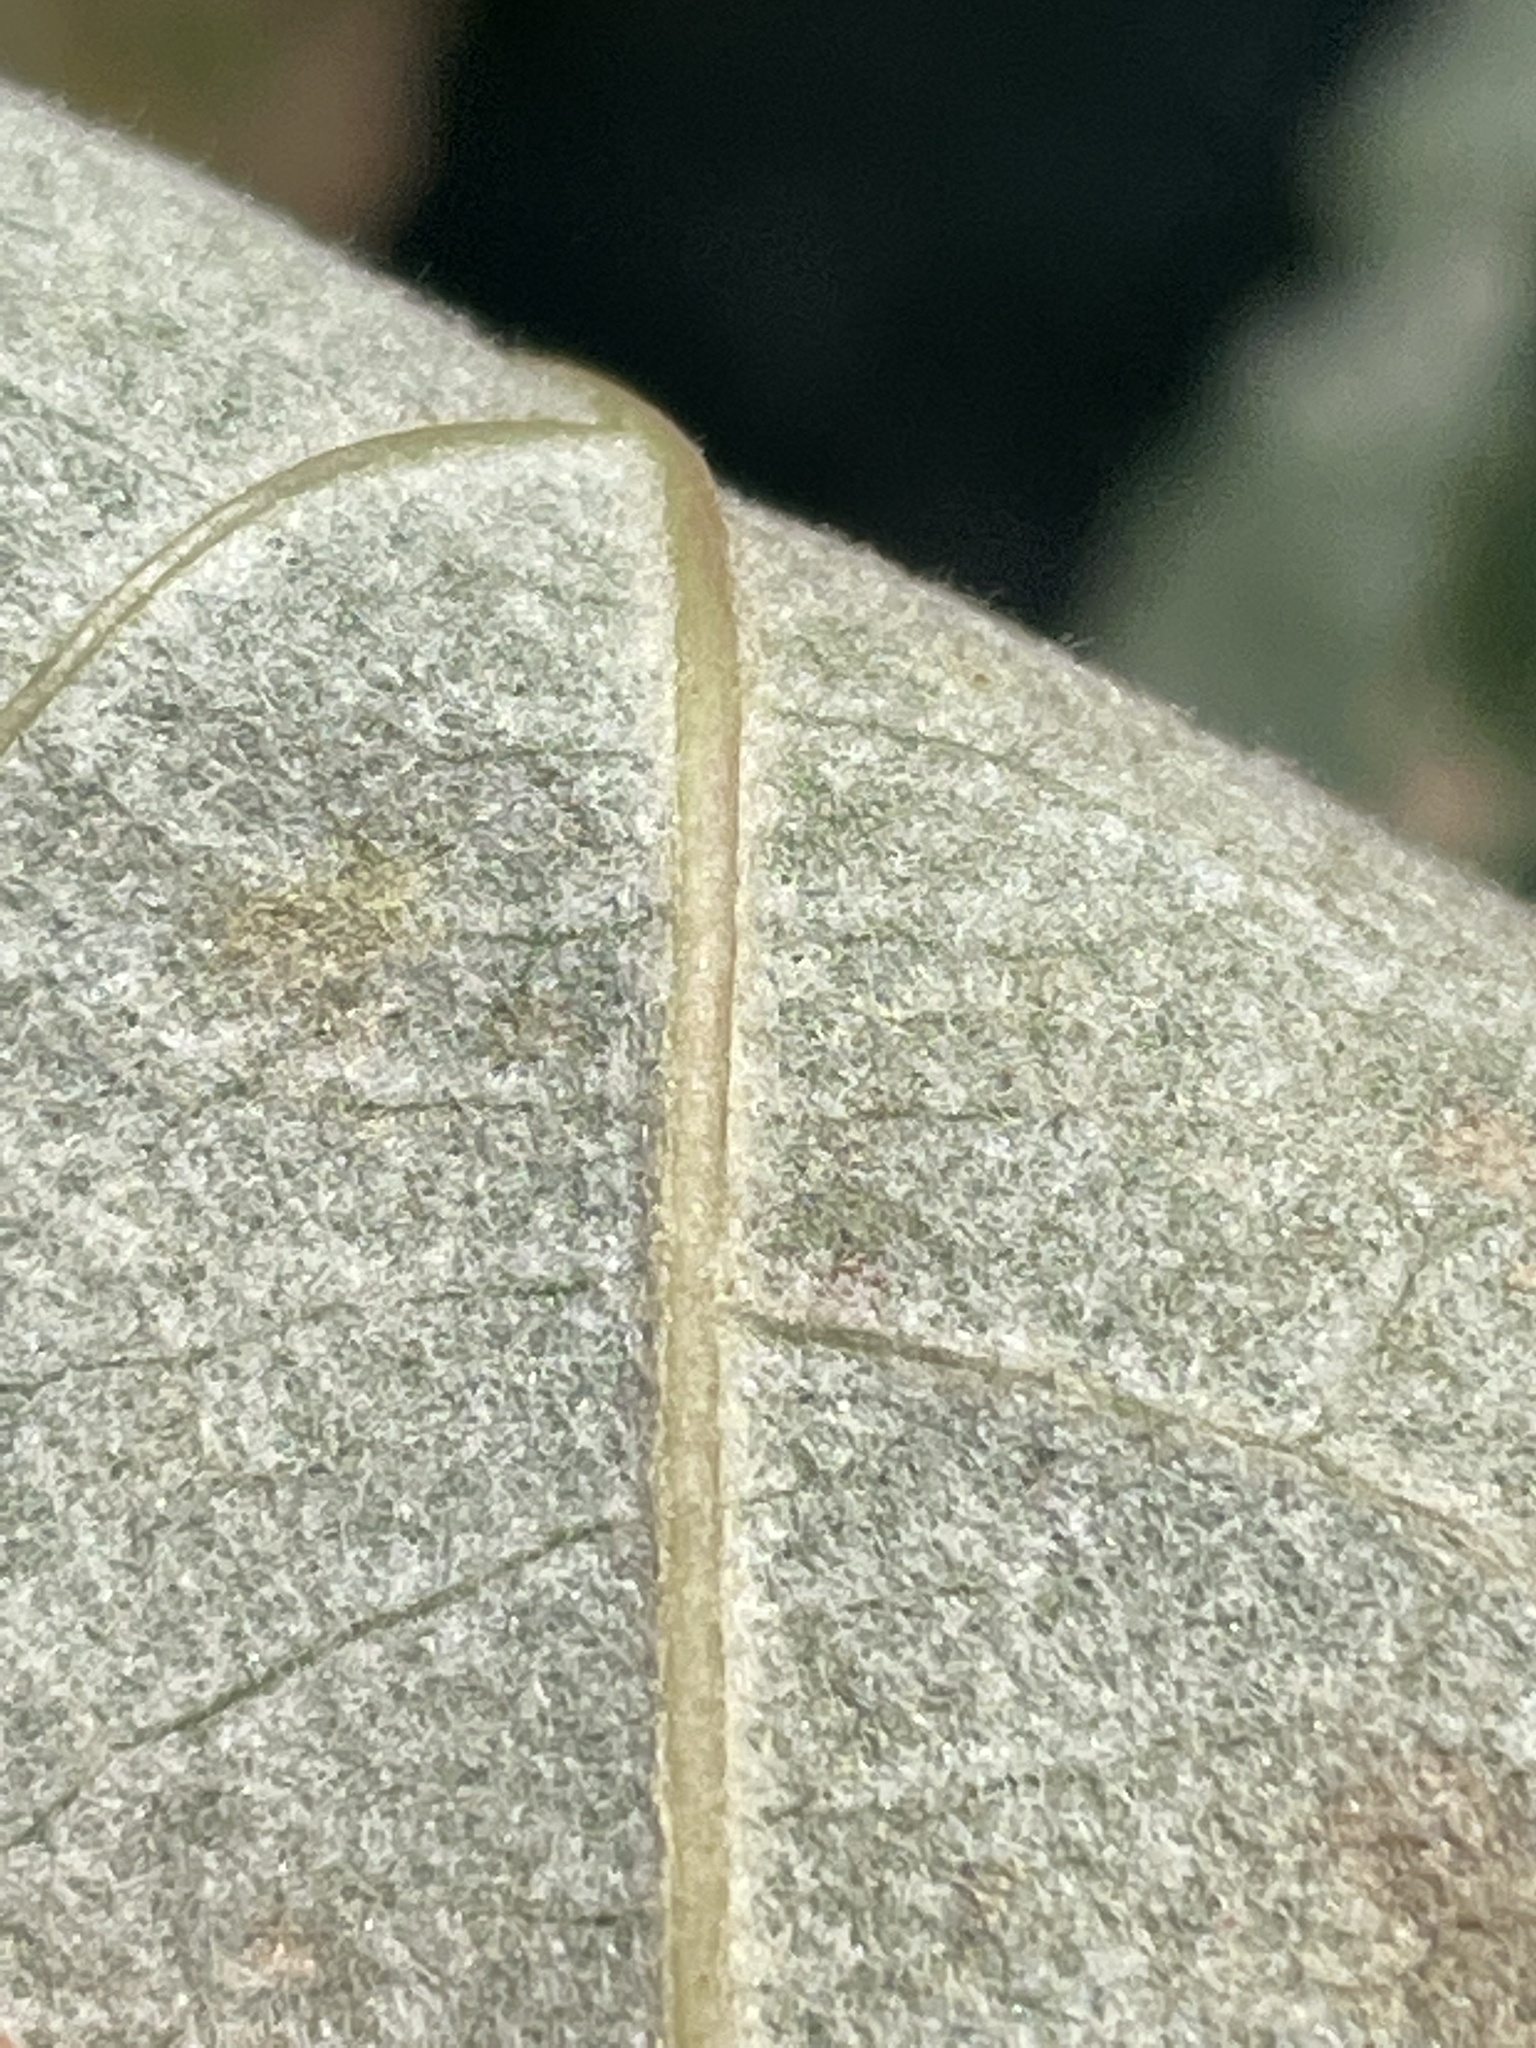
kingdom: Plantae
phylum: Tracheophyta
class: Magnoliopsida
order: Malpighiales
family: Salicaceae
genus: Populus
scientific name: Populus alba
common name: White poplar
